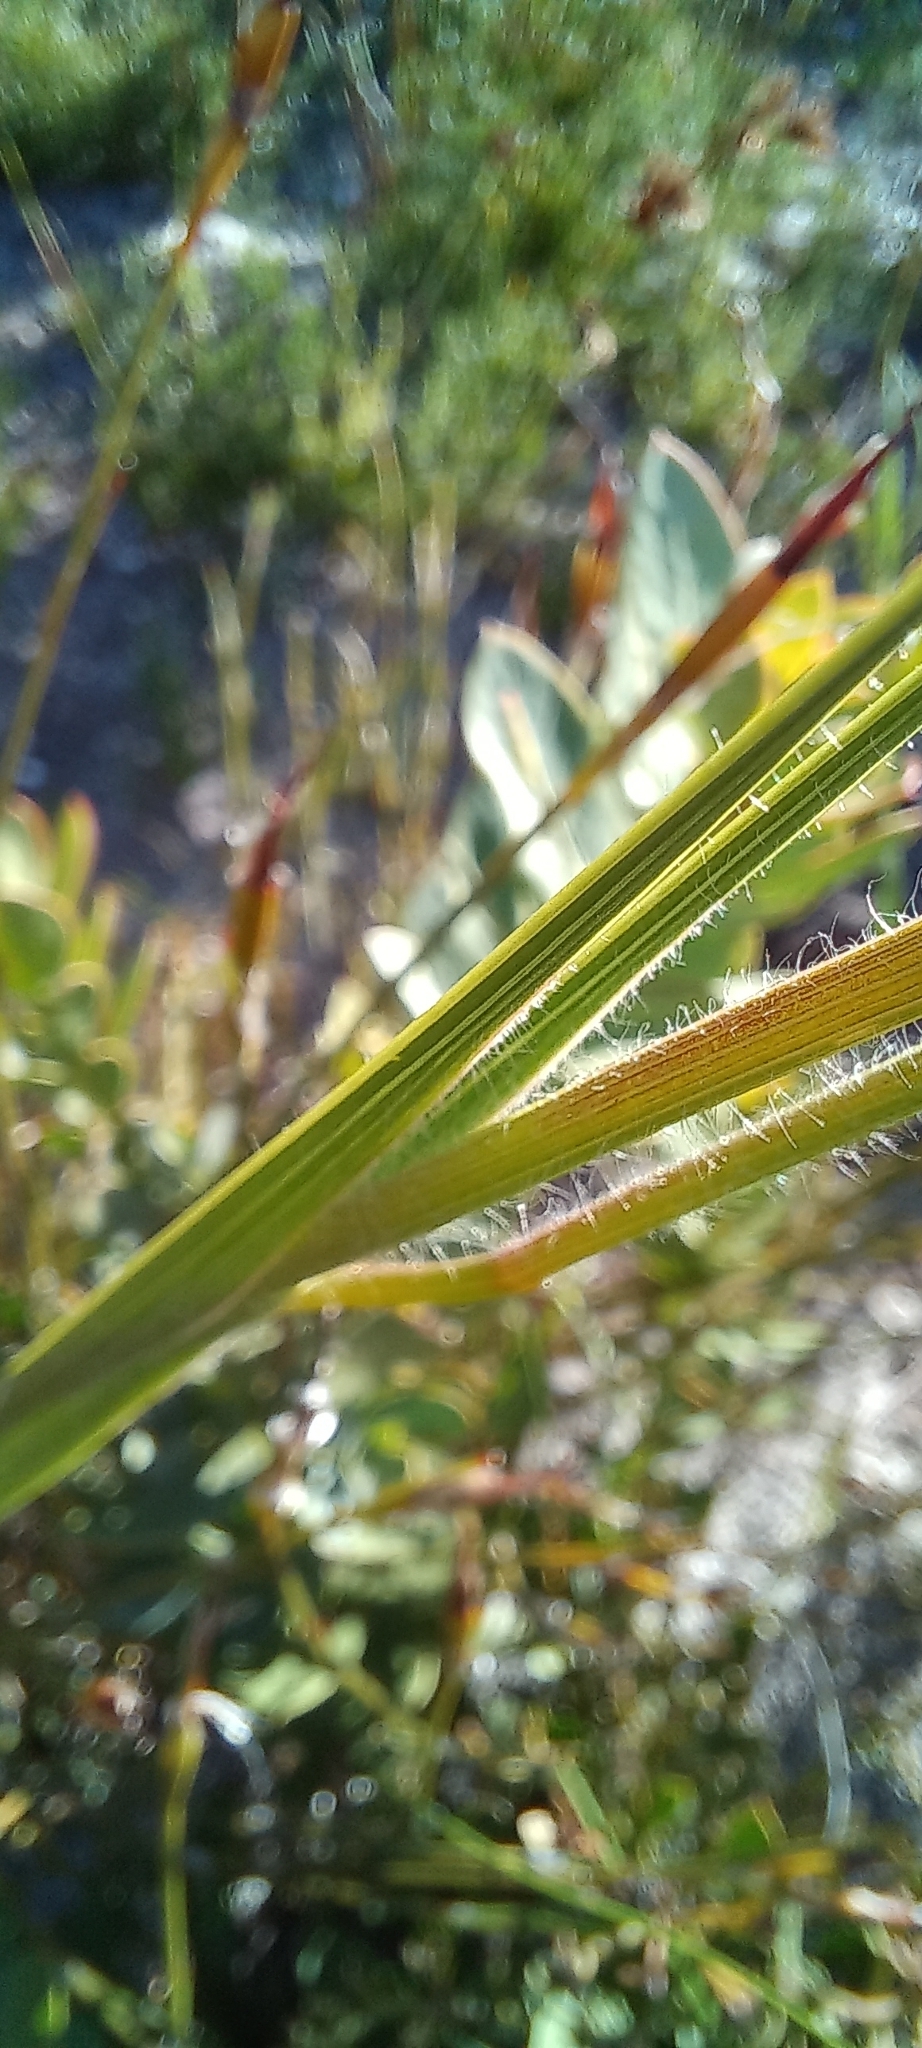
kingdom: Plantae
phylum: Tracheophyta
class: Liliopsida
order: Asparagales
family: Iridaceae
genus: Gladiolus
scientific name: Gladiolus hirsutus
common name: Small pink afrikaner
